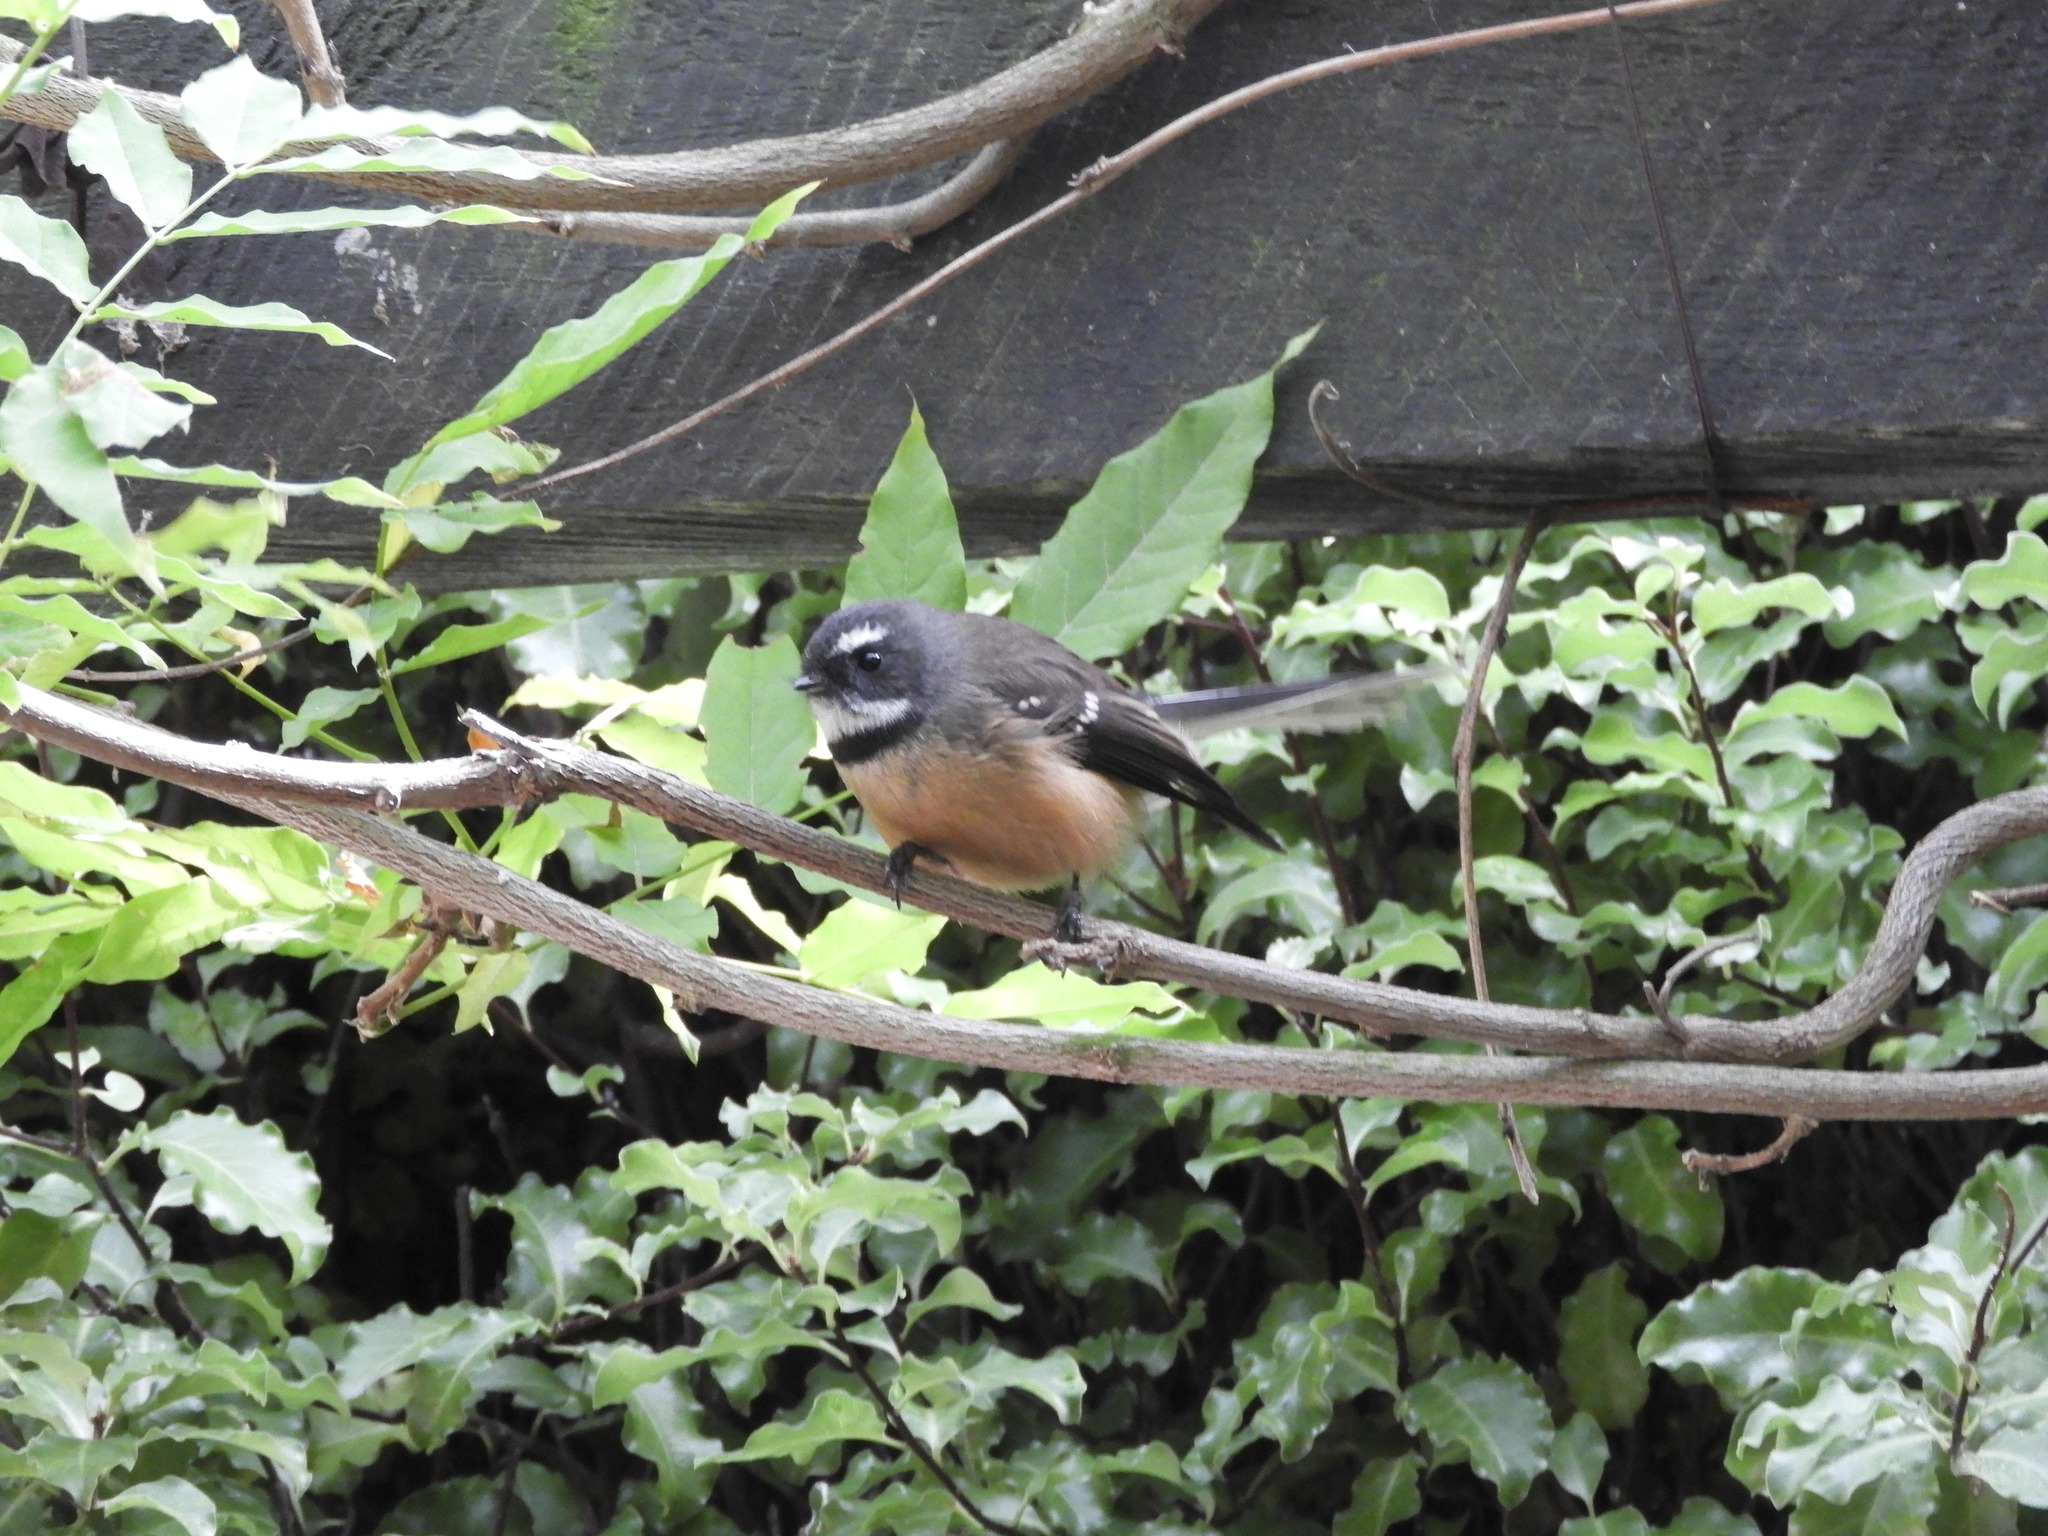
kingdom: Animalia
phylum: Chordata
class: Aves
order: Passeriformes
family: Rhipiduridae
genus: Rhipidura
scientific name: Rhipidura fuliginosa
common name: New zealand fantail
